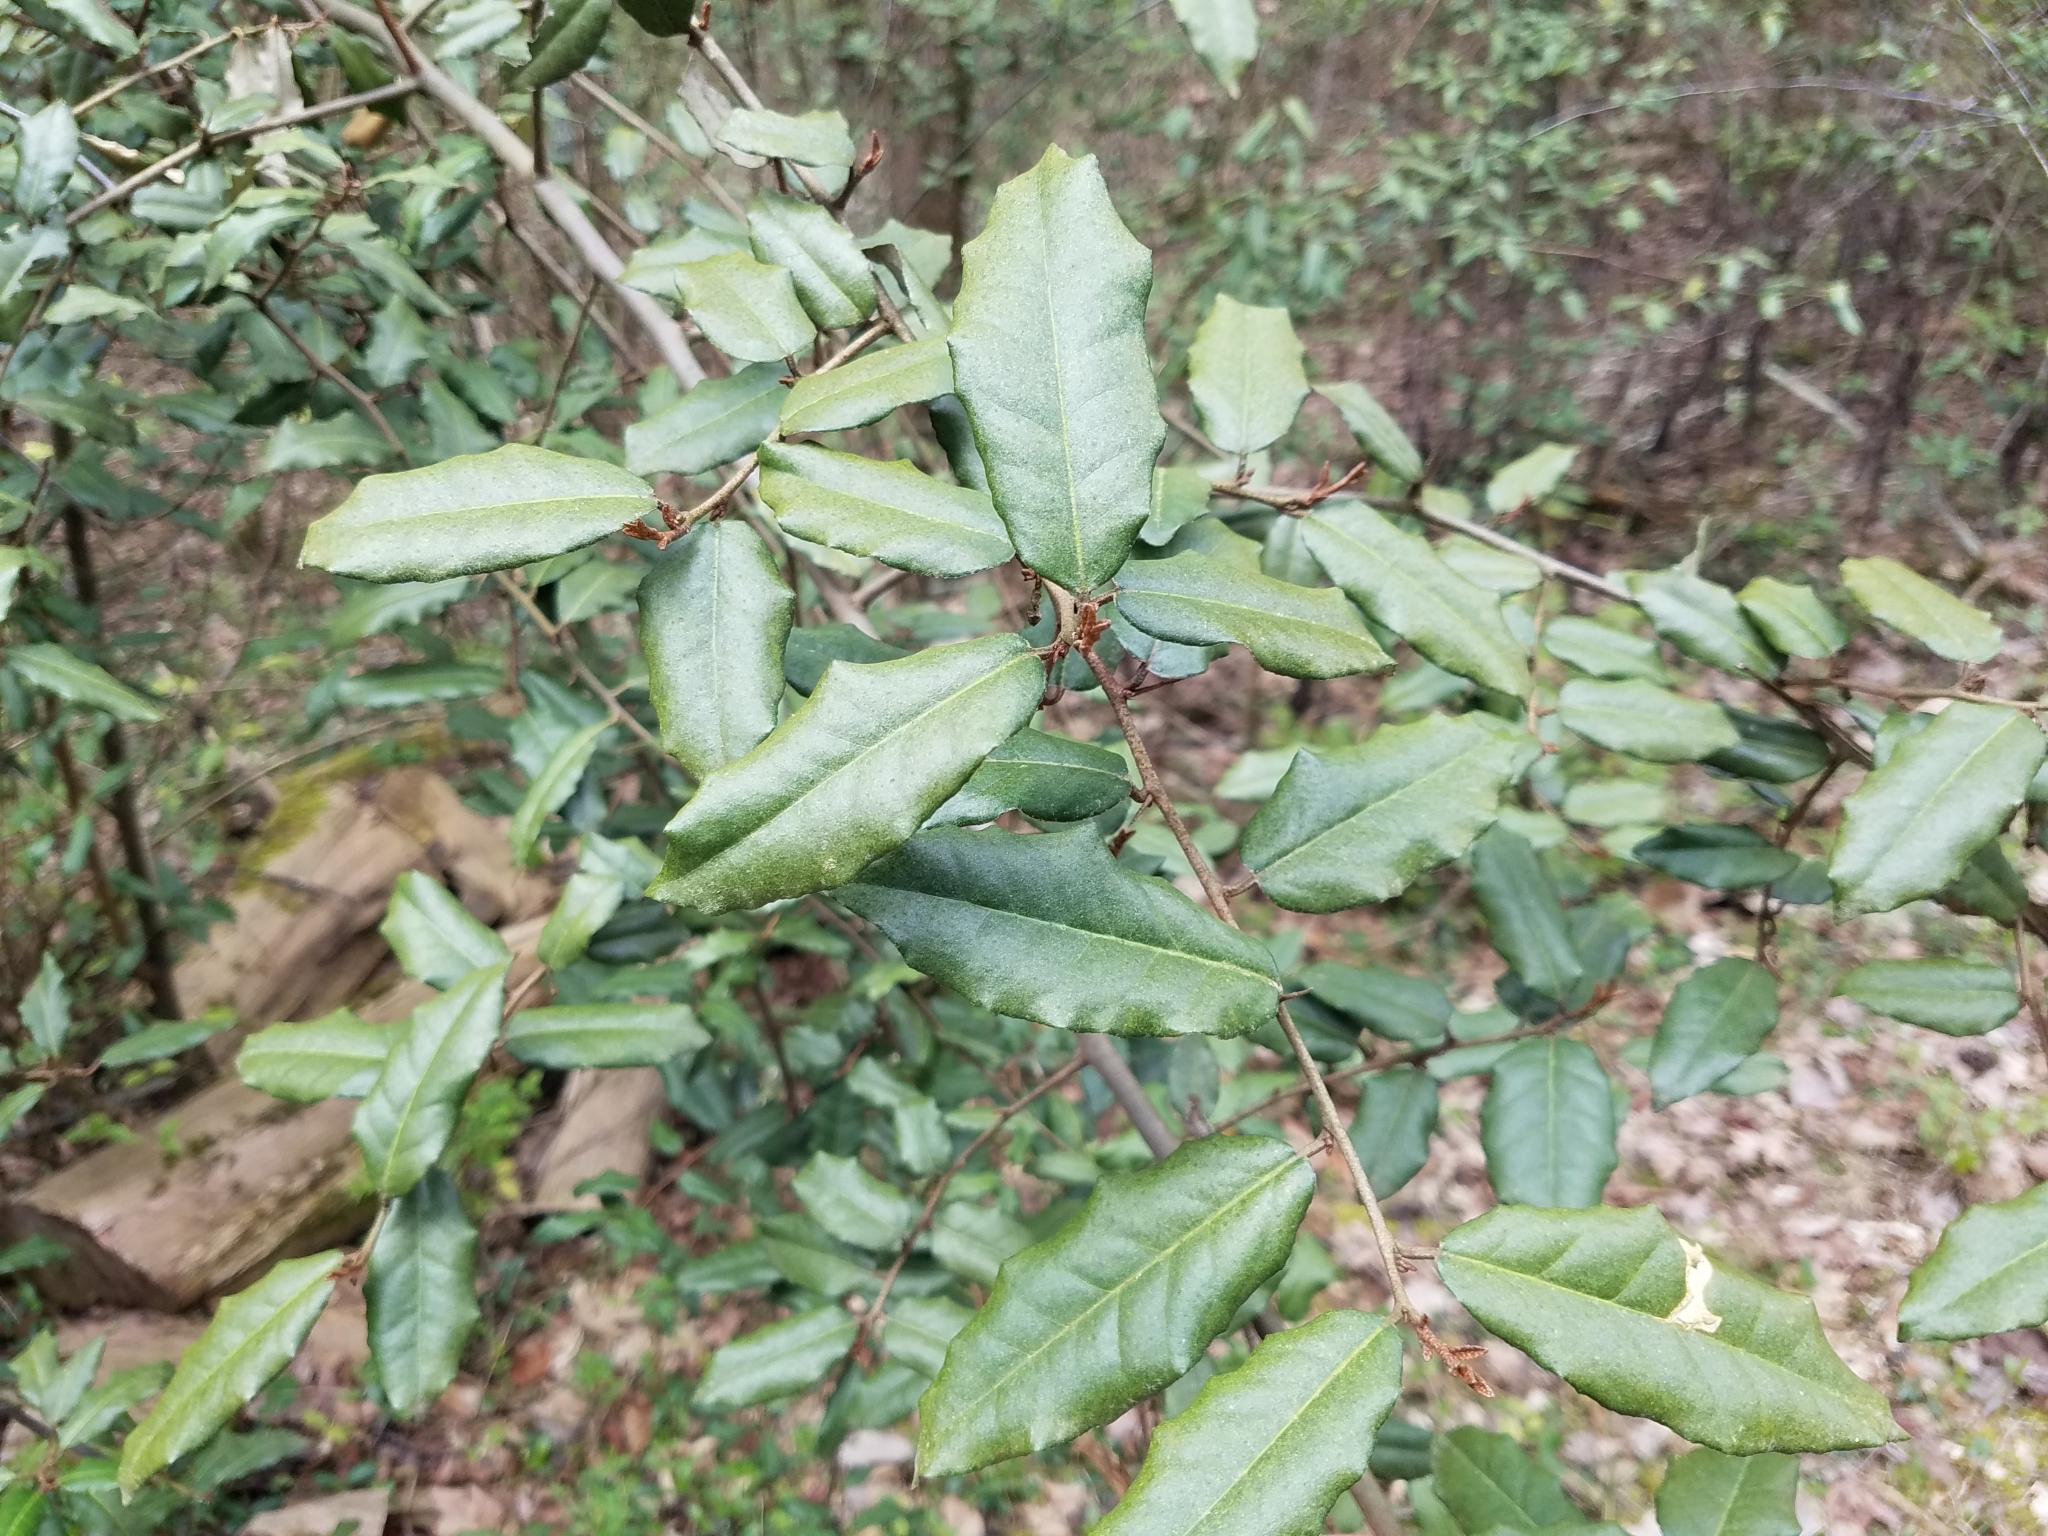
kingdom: Plantae
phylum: Tracheophyta
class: Magnoliopsida
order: Rosales
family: Elaeagnaceae
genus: Elaeagnus
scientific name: Elaeagnus pungens
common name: Spiny oleaster
